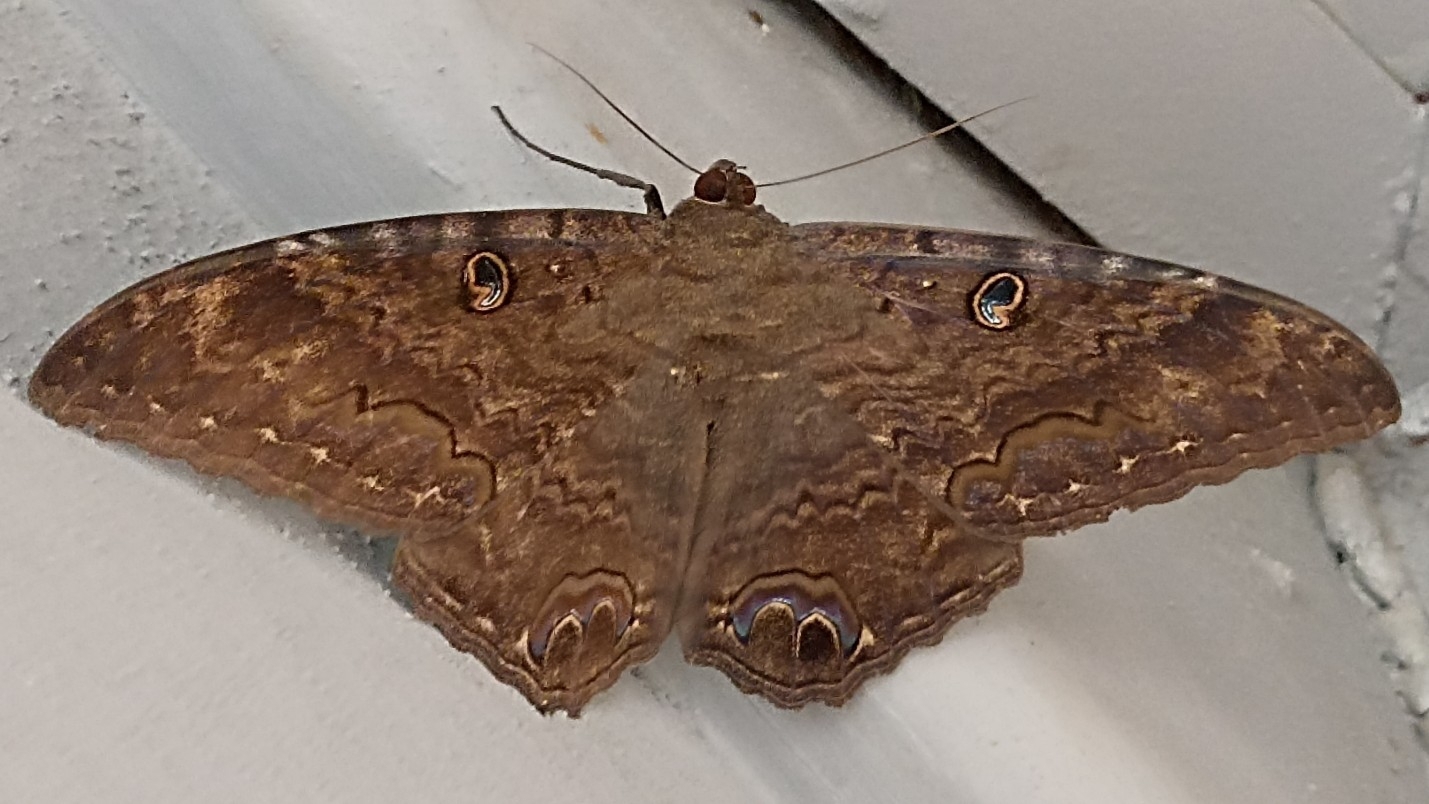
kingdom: Animalia
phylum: Arthropoda
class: Insecta
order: Lepidoptera
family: Erebidae
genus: Ascalapha
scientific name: Ascalapha odorata
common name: Black witch
